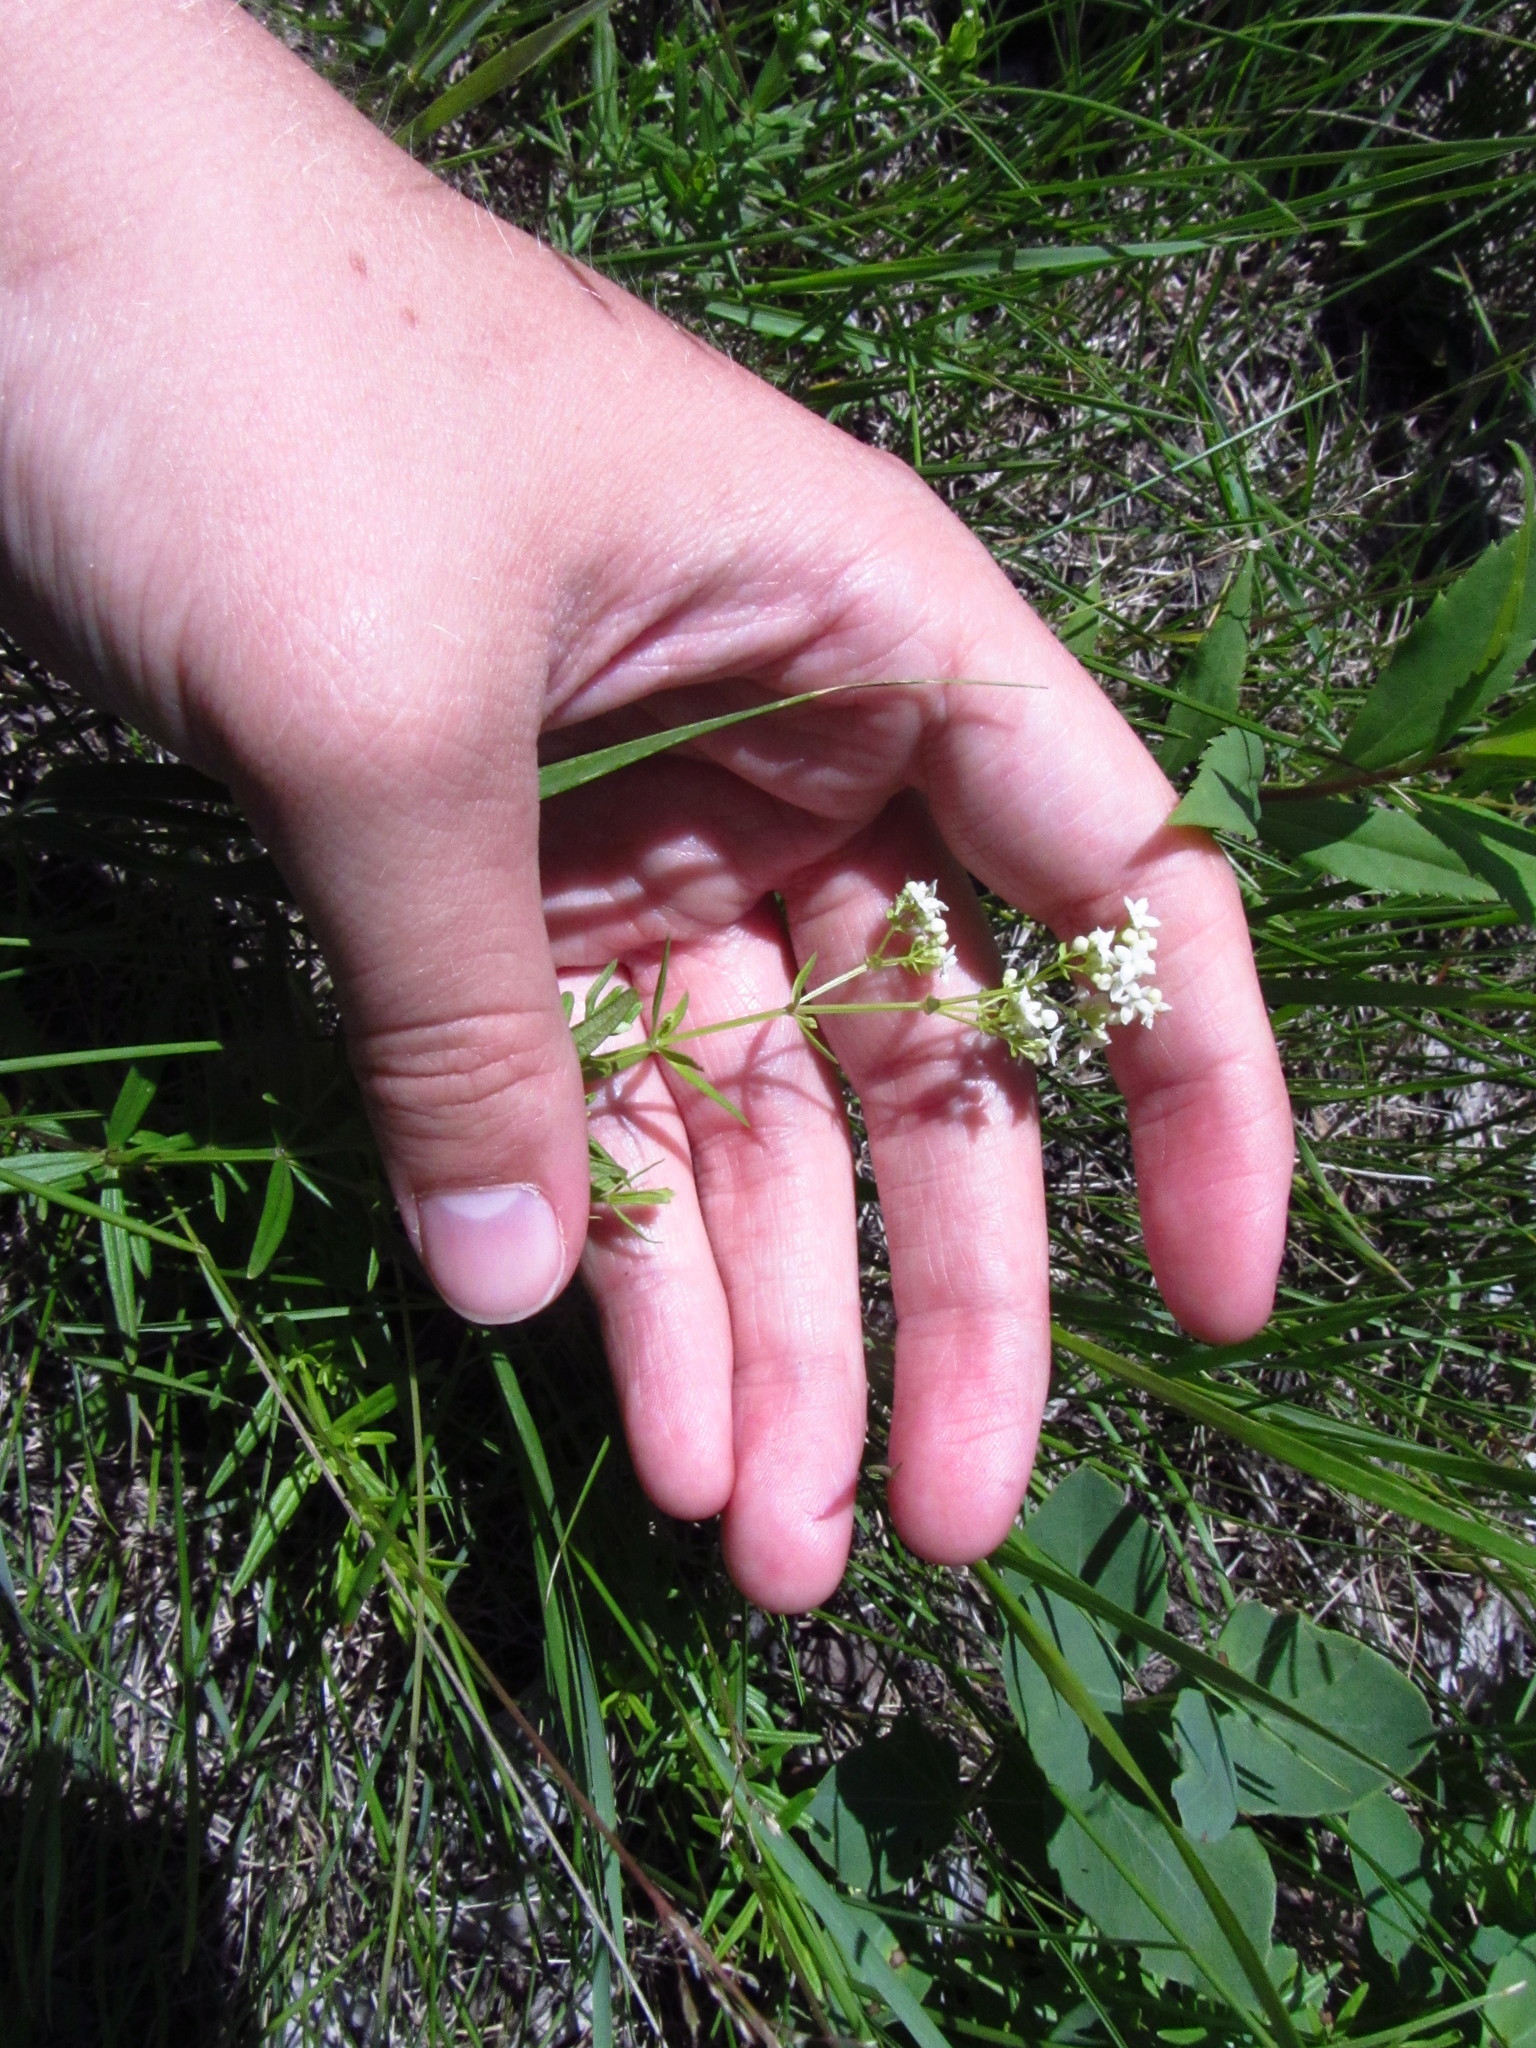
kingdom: Plantae
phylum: Tracheophyta
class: Magnoliopsida
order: Gentianales
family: Rubiaceae
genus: Galium
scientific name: Galium boreale
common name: Northern bedstraw
